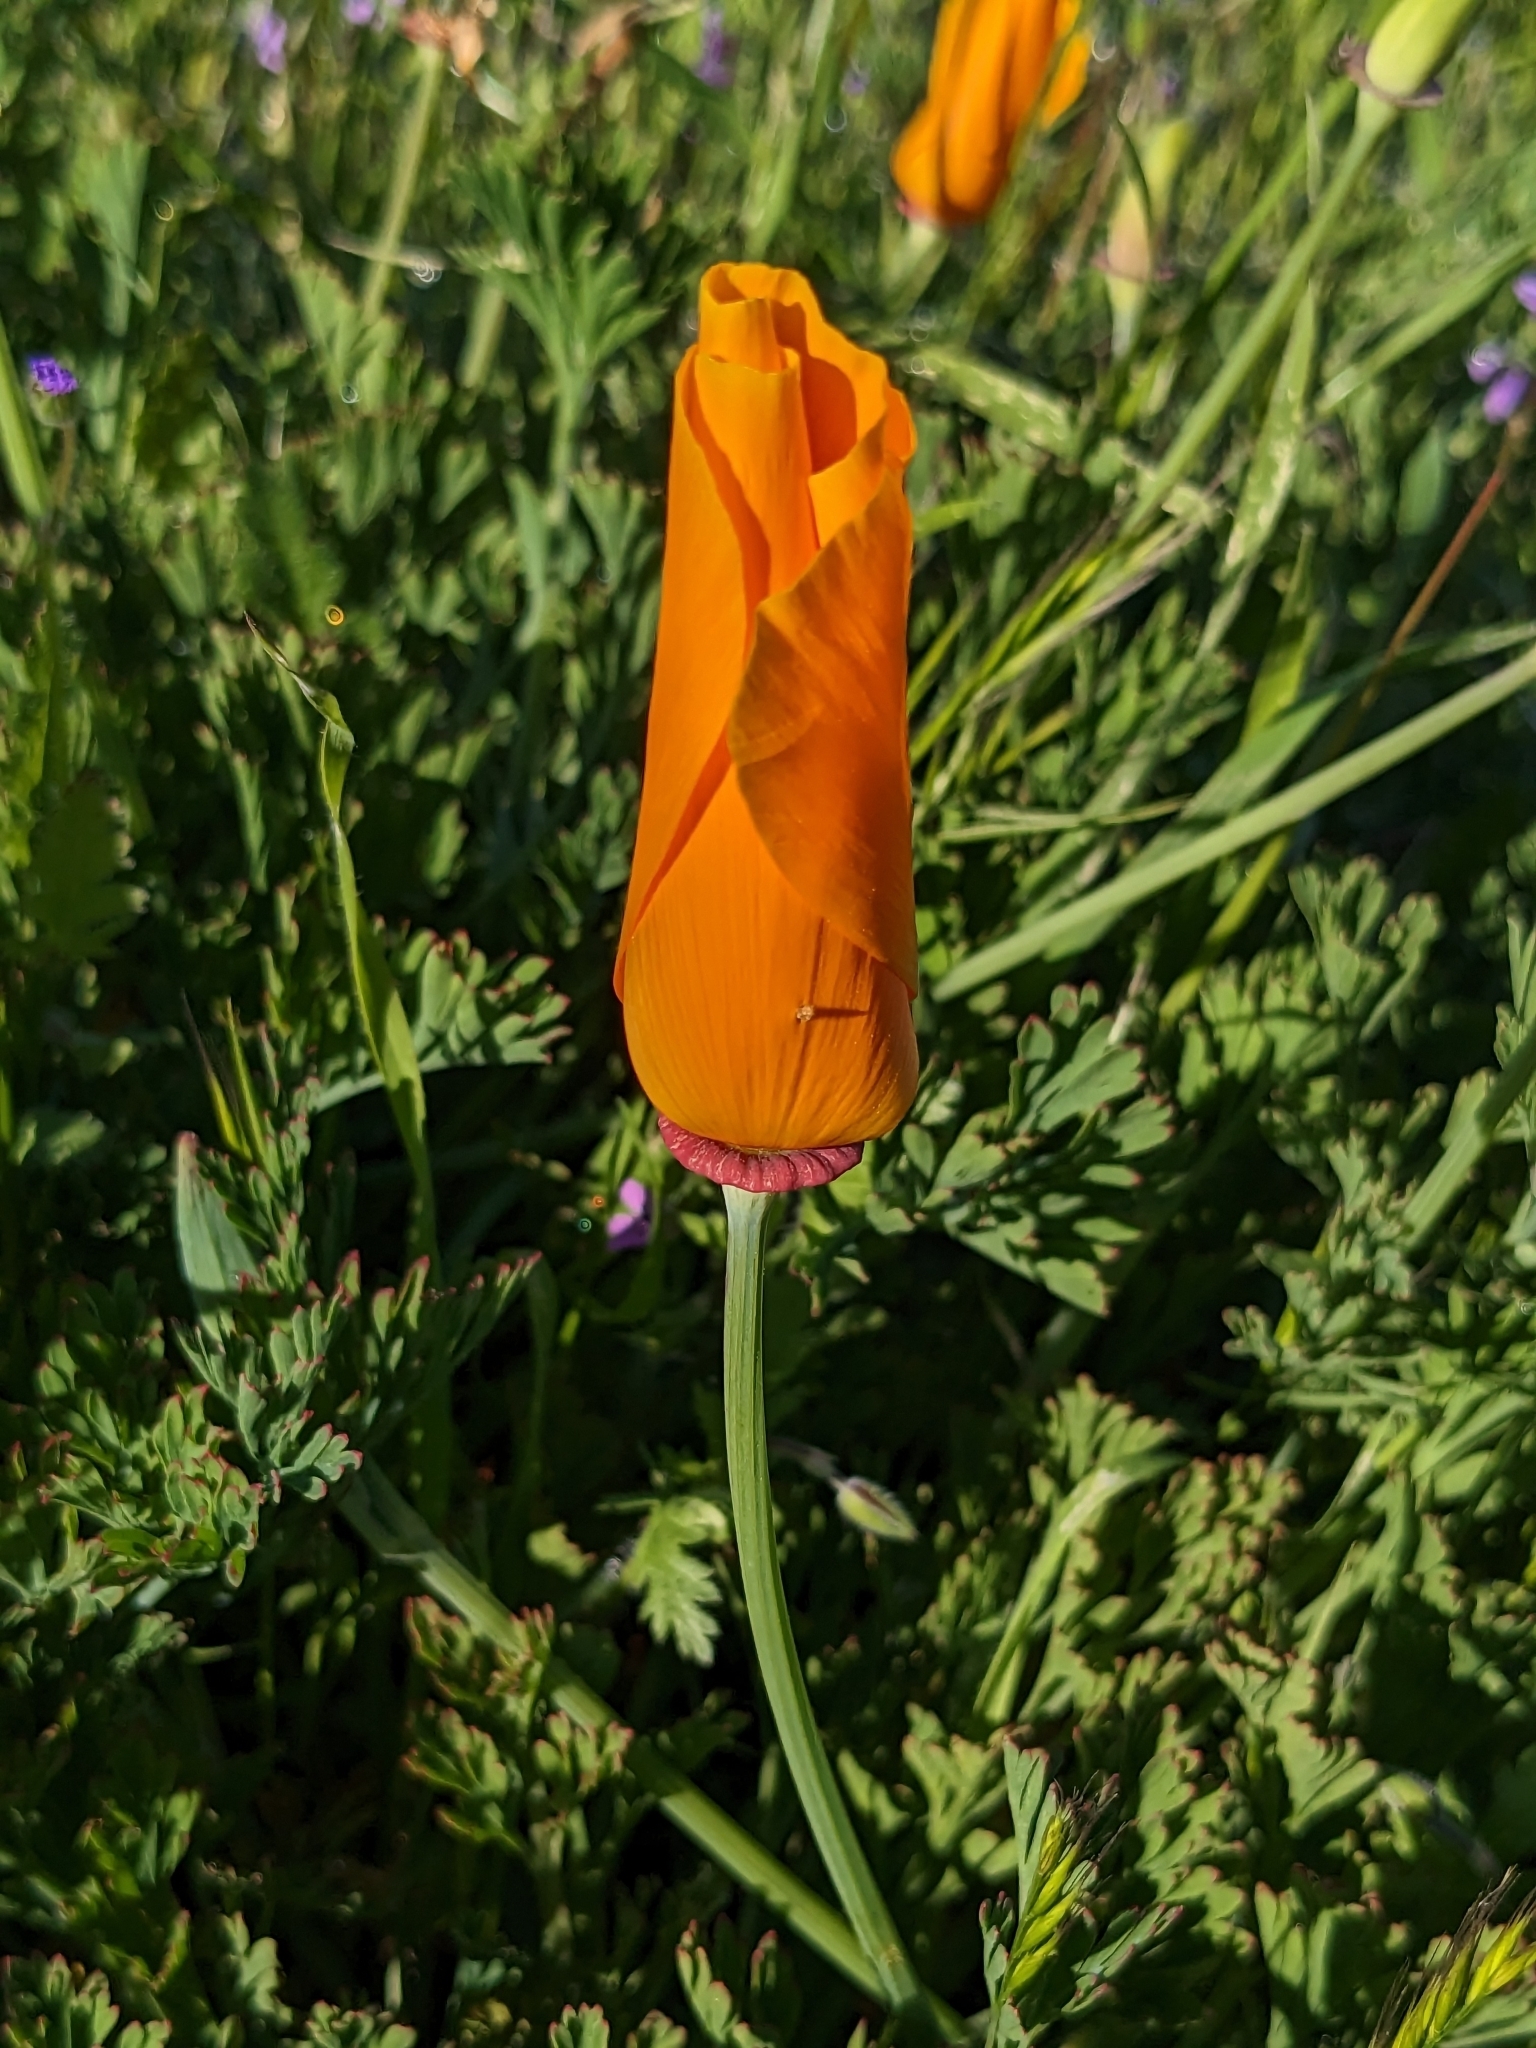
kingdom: Plantae
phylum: Tracheophyta
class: Magnoliopsida
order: Ranunculales
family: Papaveraceae
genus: Eschscholzia
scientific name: Eschscholzia californica
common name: California poppy
